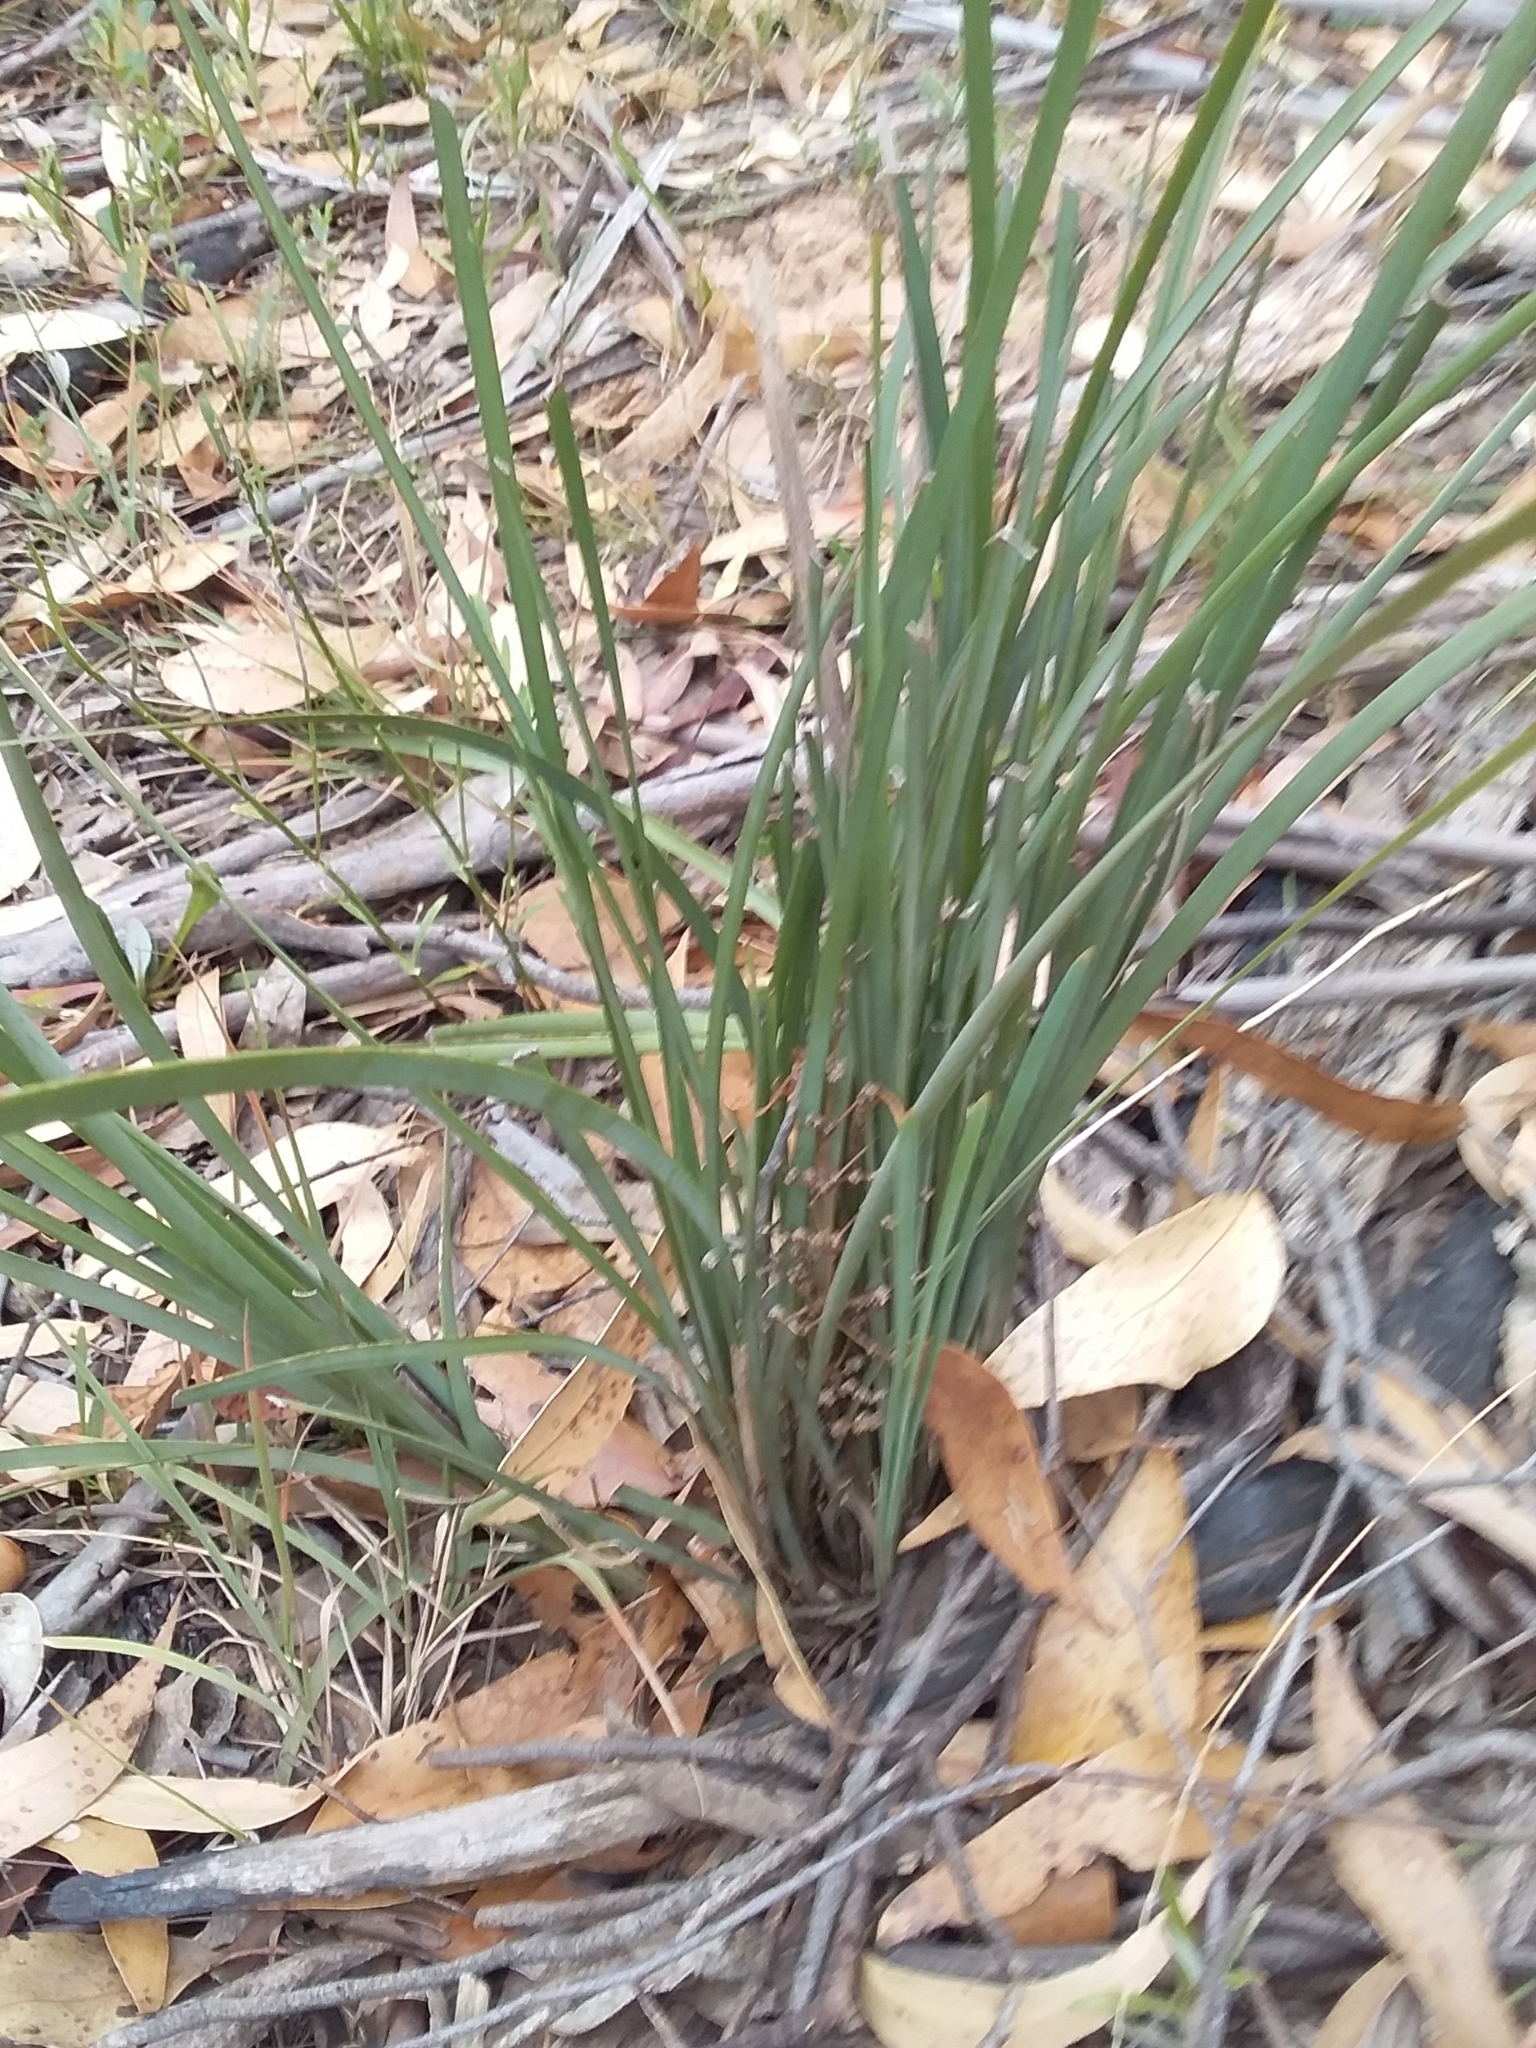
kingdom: Plantae
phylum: Tracheophyta
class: Liliopsida
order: Asparagales
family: Asparagaceae
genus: Lomandra
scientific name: Lomandra multiflora
